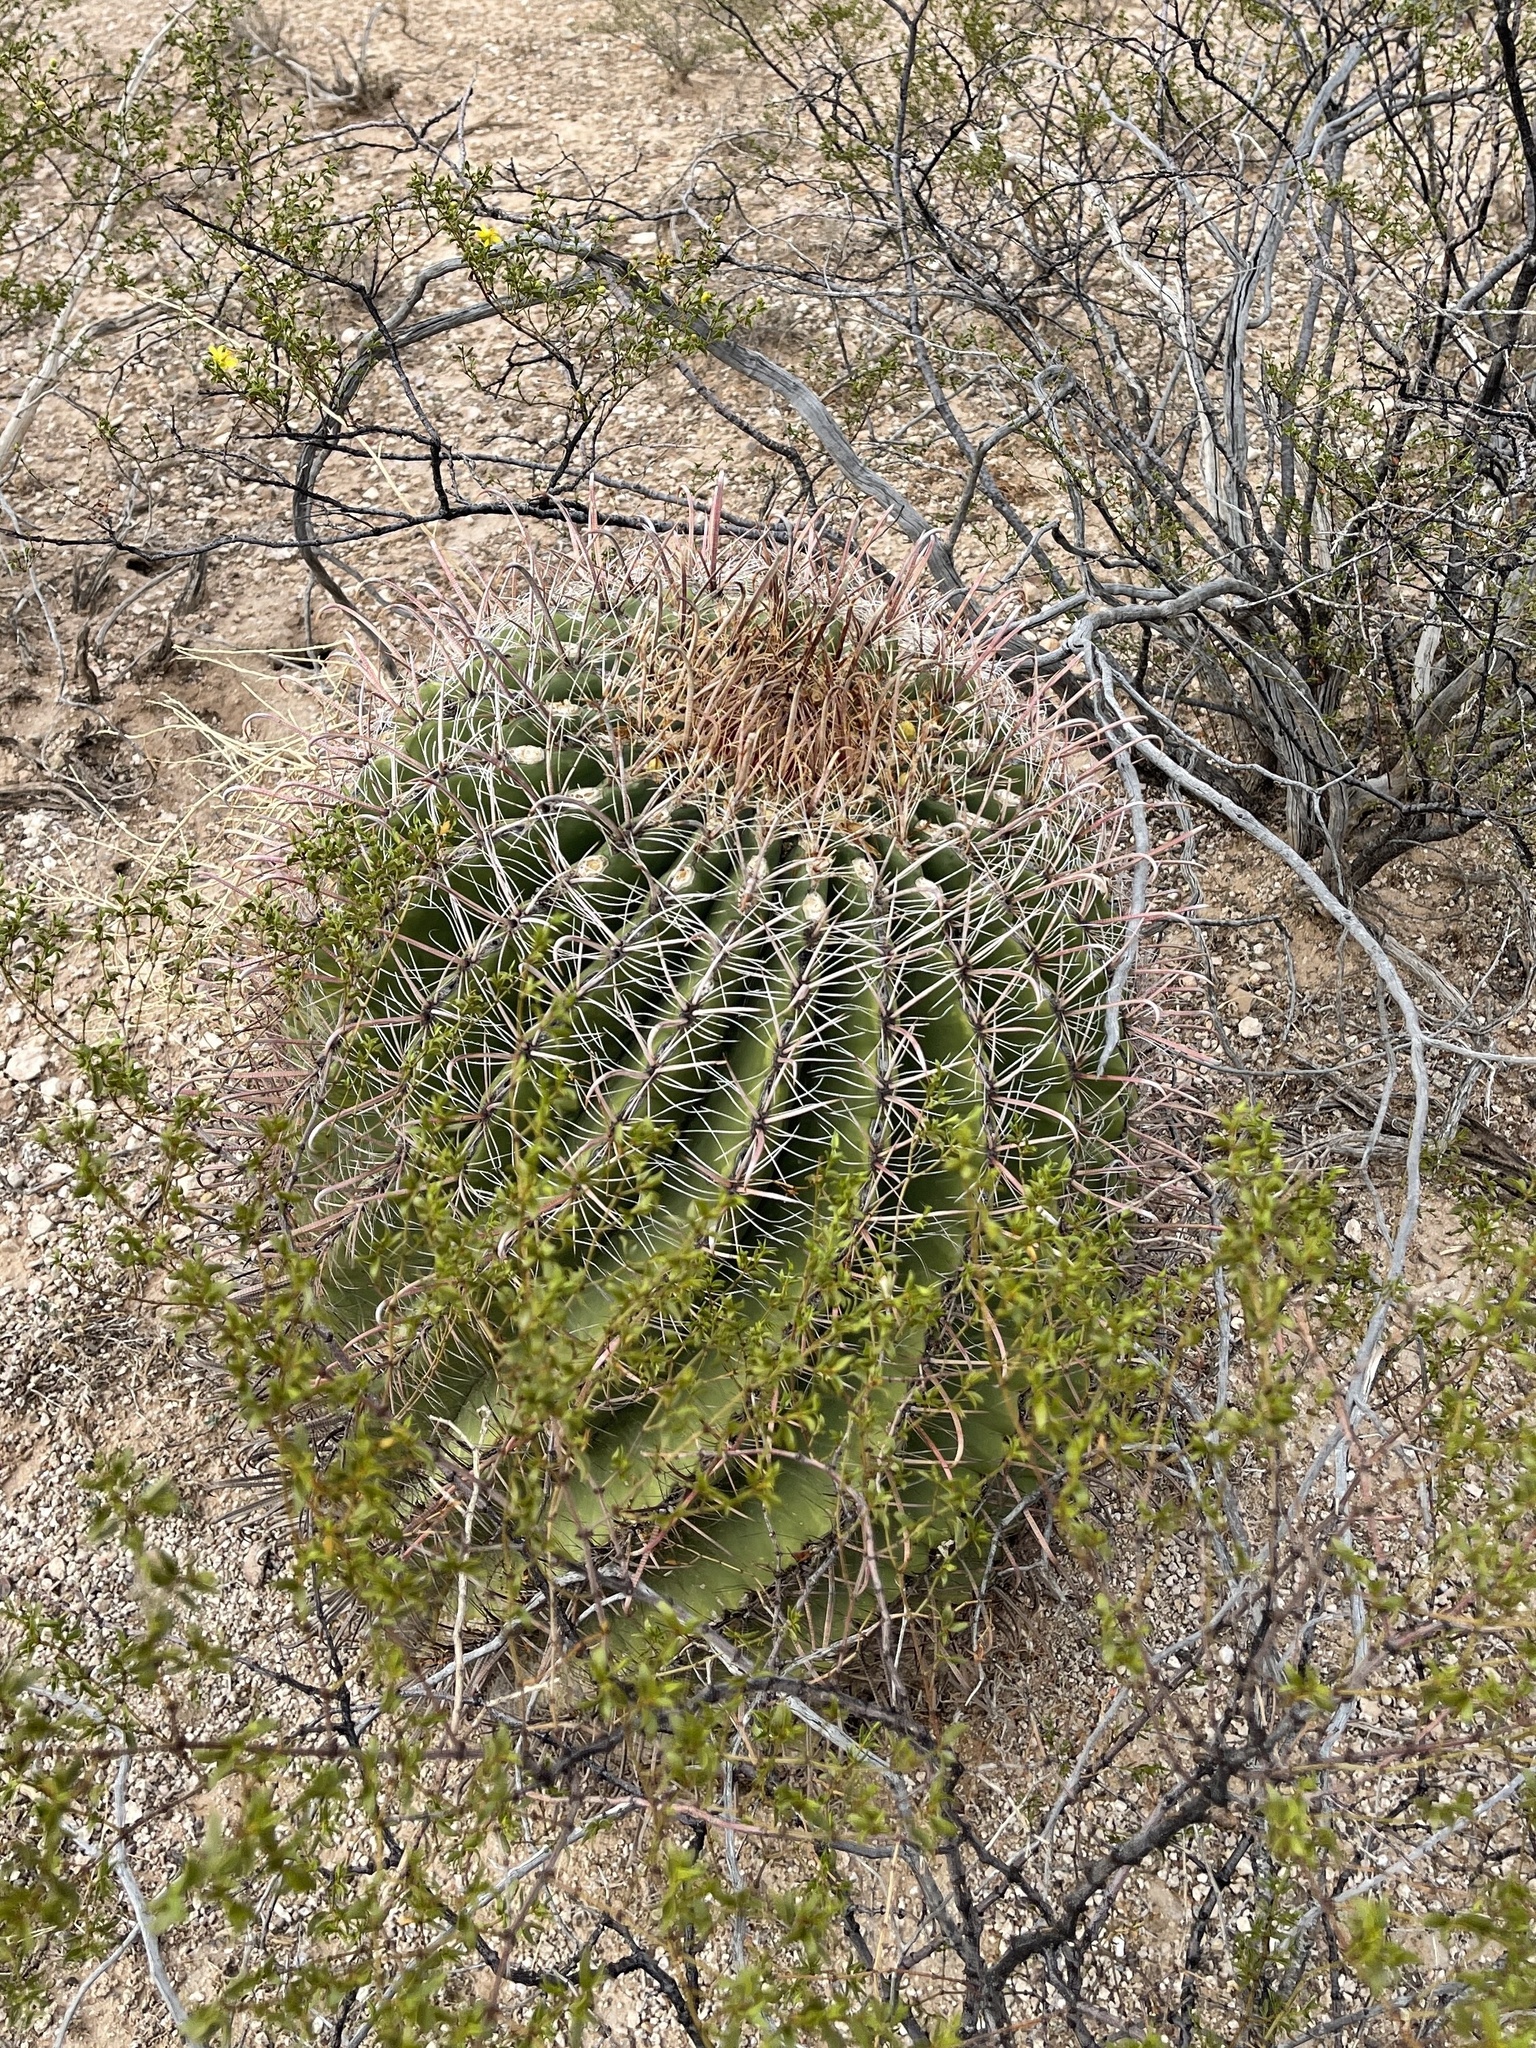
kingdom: Plantae
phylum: Tracheophyta
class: Magnoliopsida
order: Caryophyllales
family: Cactaceae
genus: Ferocactus
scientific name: Ferocactus wislizeni
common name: Candy barrel cactus
